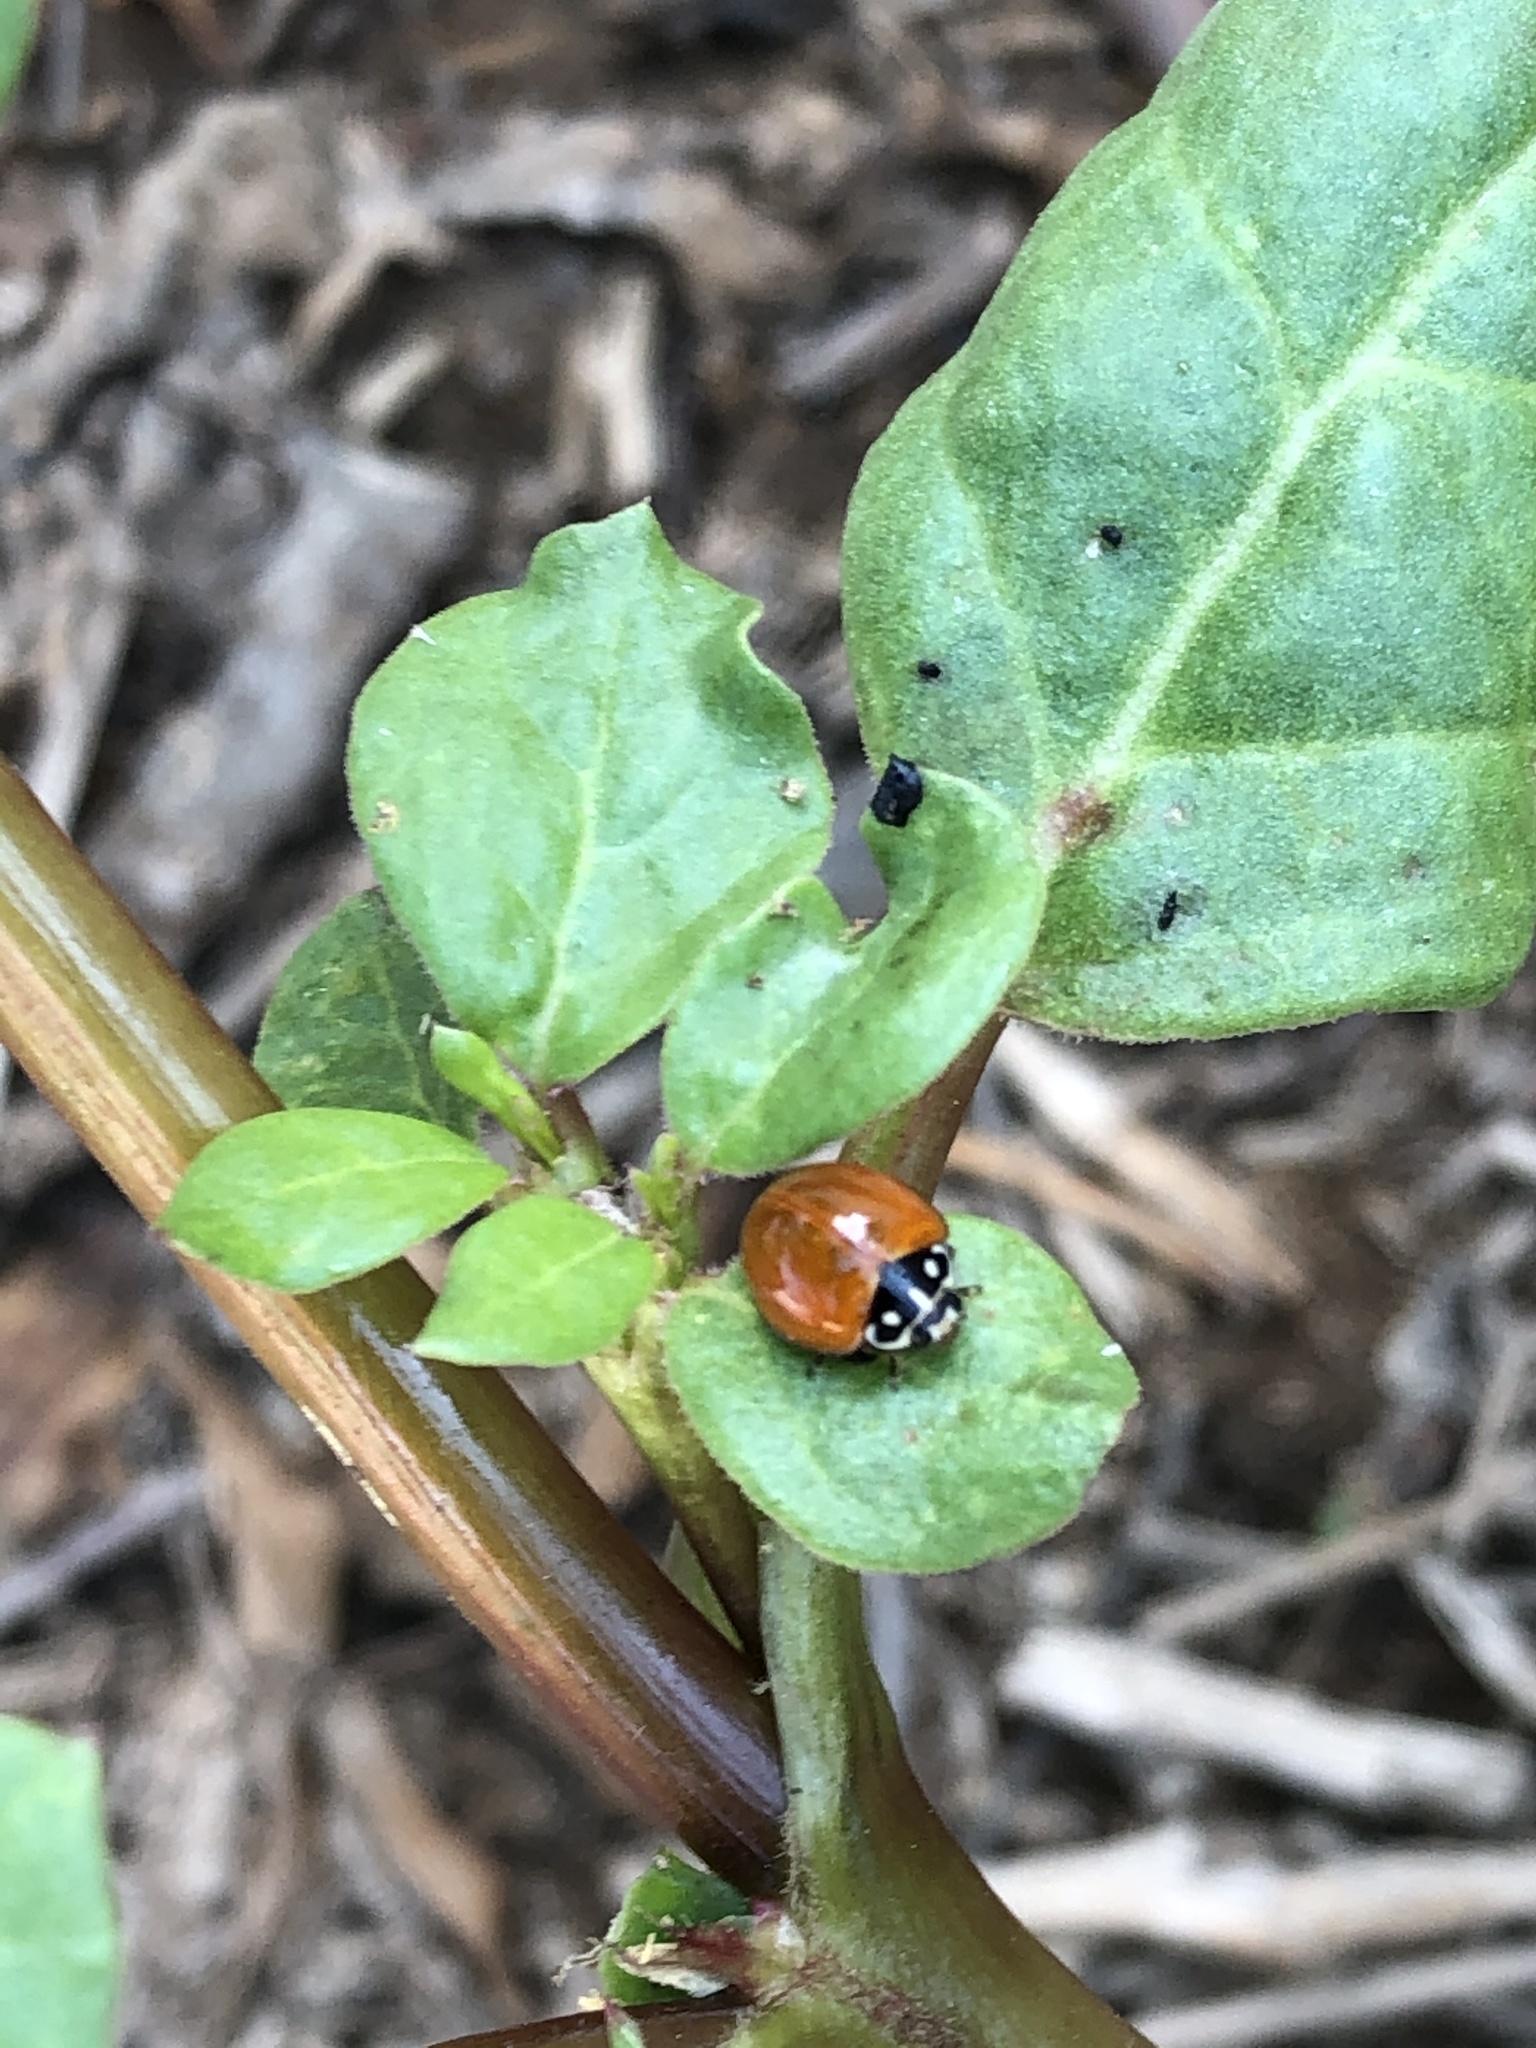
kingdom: Animalia
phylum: Arthropoda
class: Insecta
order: Coleoptera
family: Coccinellidae
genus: Cycloneda
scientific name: Cycloneda sanguinea
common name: Ladybird beetle
